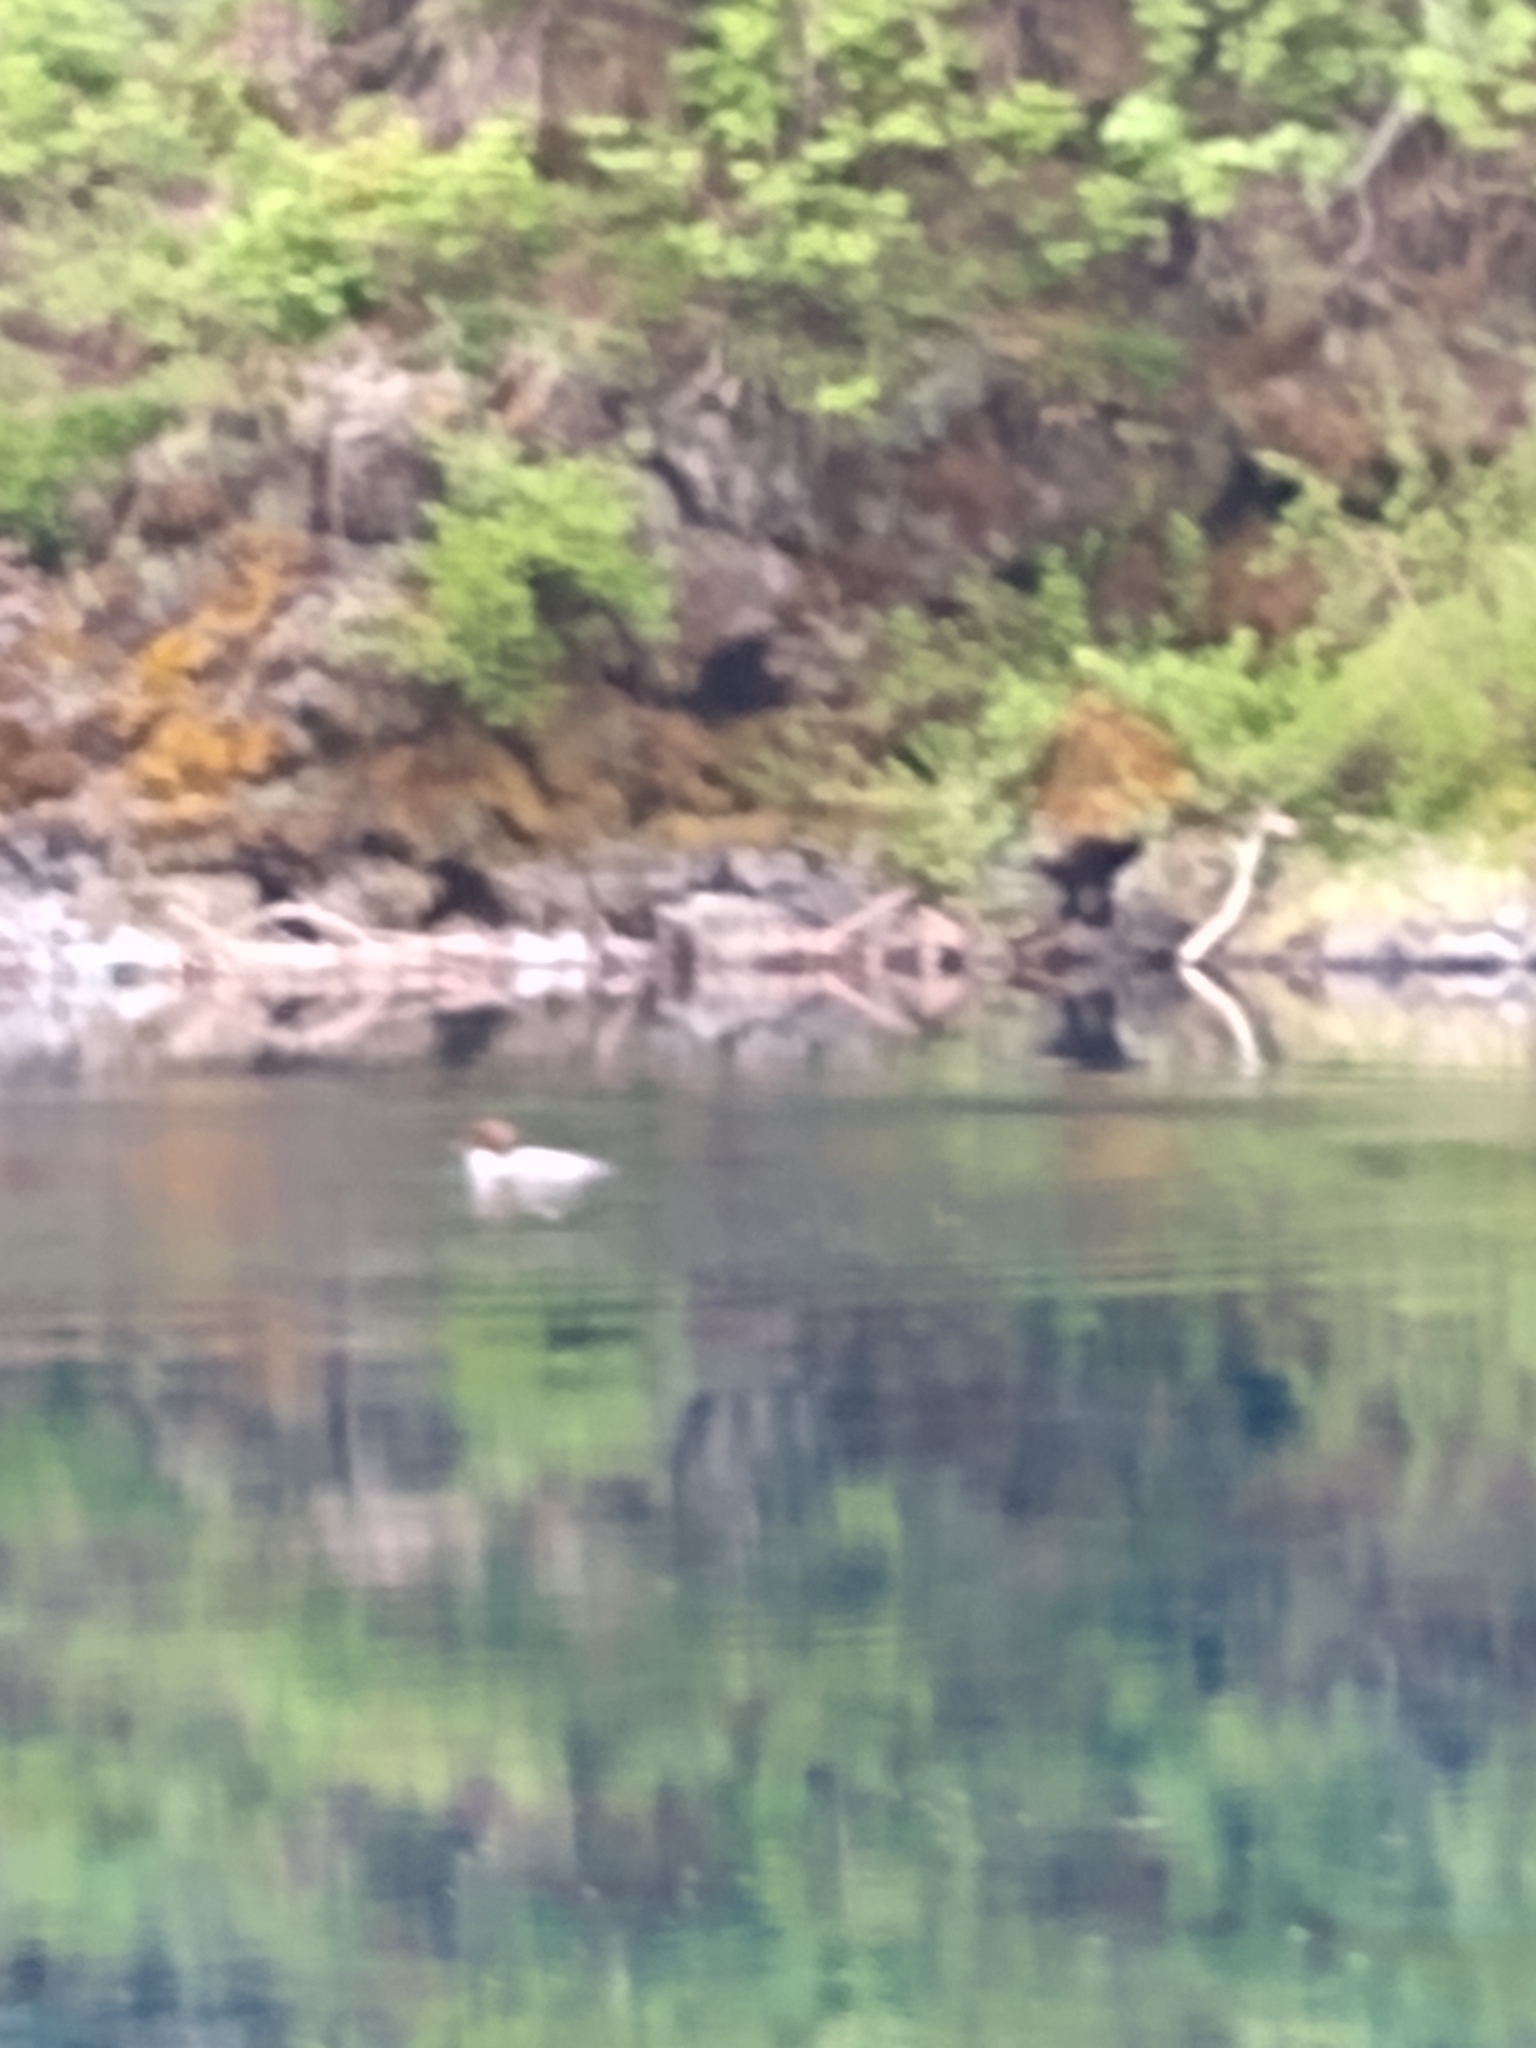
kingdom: Animalia
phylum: Chordata
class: Aves
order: Anseriformes
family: Anatidae
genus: Mergus
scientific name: Mergus merganser
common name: Common merganser
